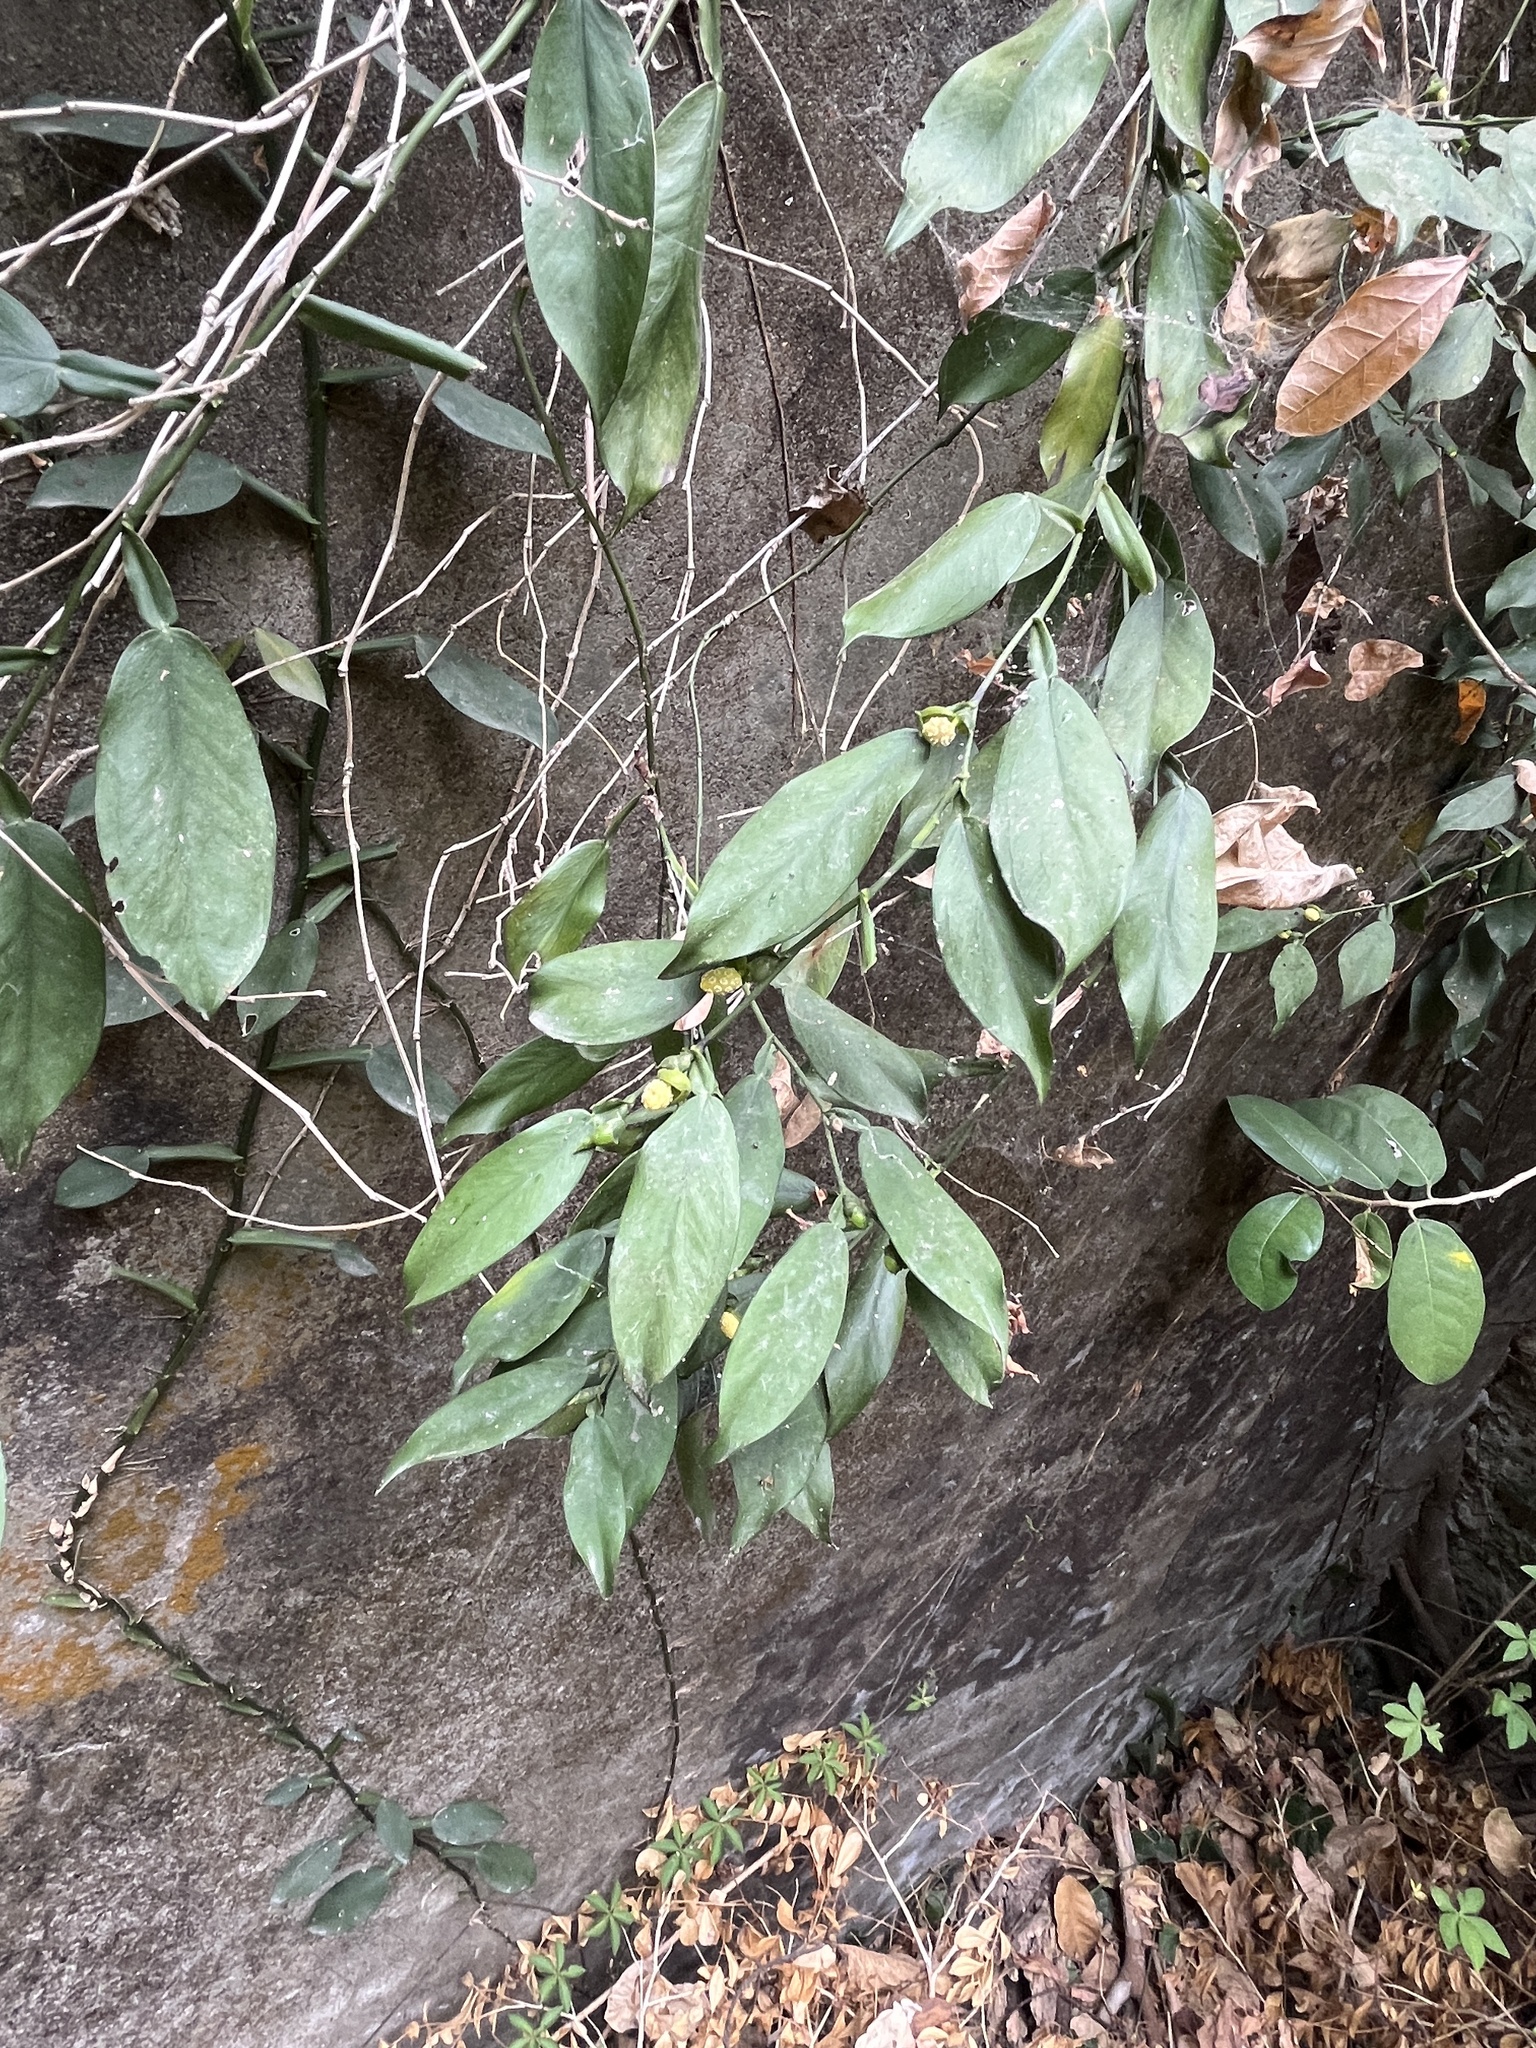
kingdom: Plantae
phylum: Tracheophyta
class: Liliopsida
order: Alismatales
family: Araceae
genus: Pothos
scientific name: Pothos chinensis
